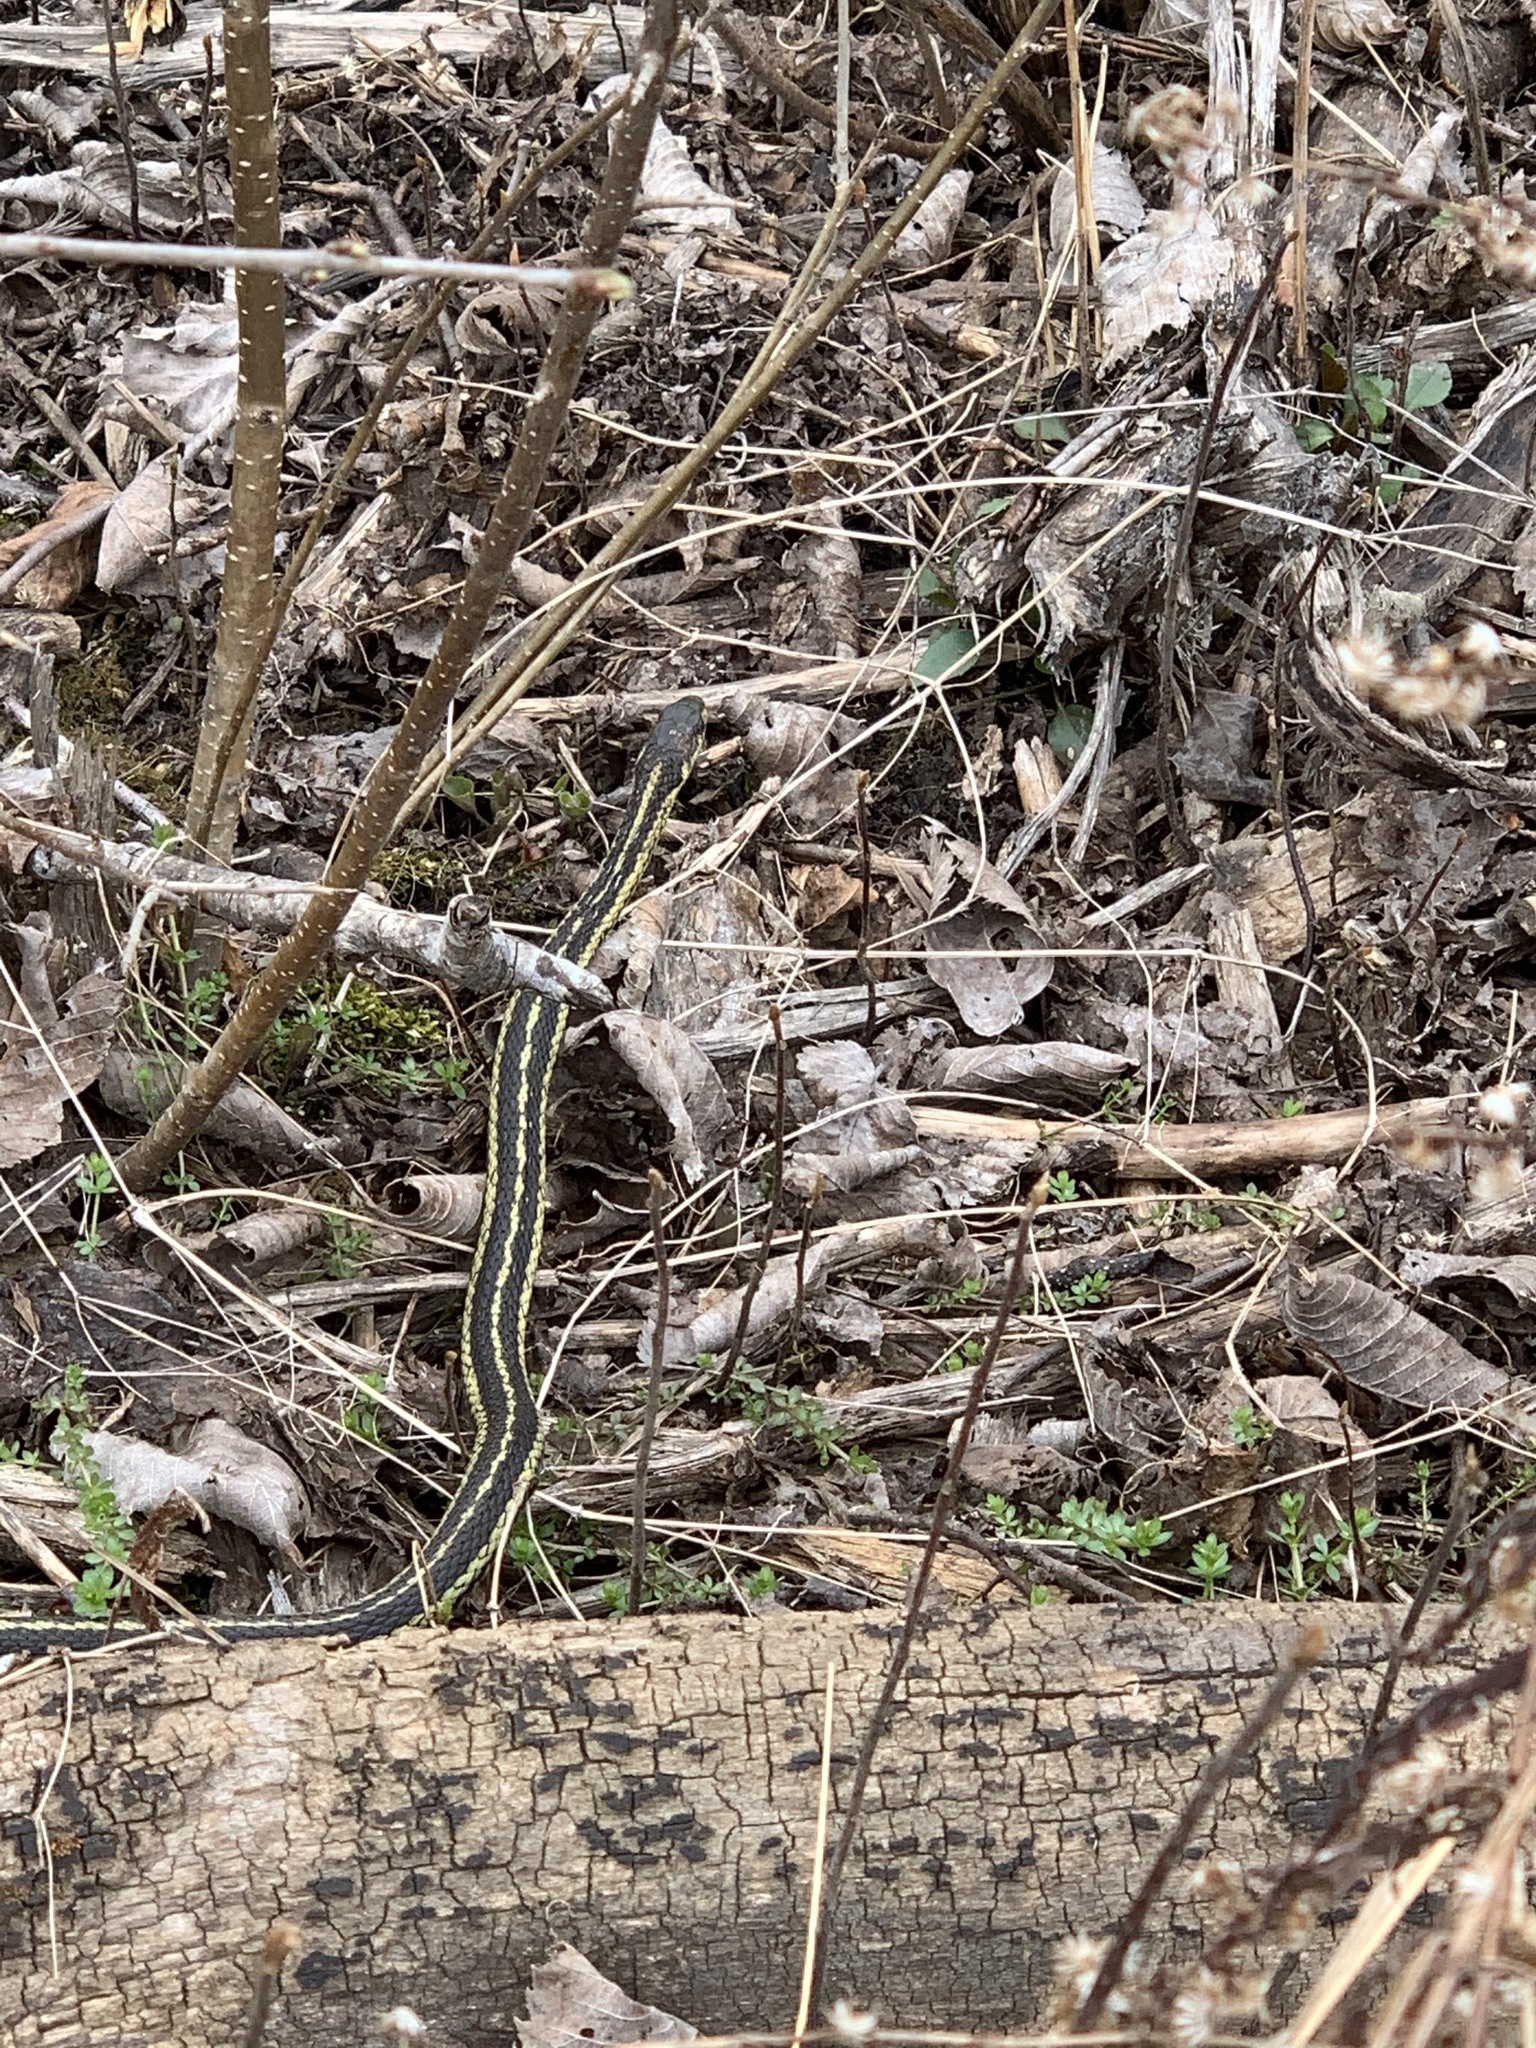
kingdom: Animalia
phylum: Chordata
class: Squamata
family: Colubridae
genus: Thamnophis
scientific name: Thamnophis sirtalis
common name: Common garter snake
